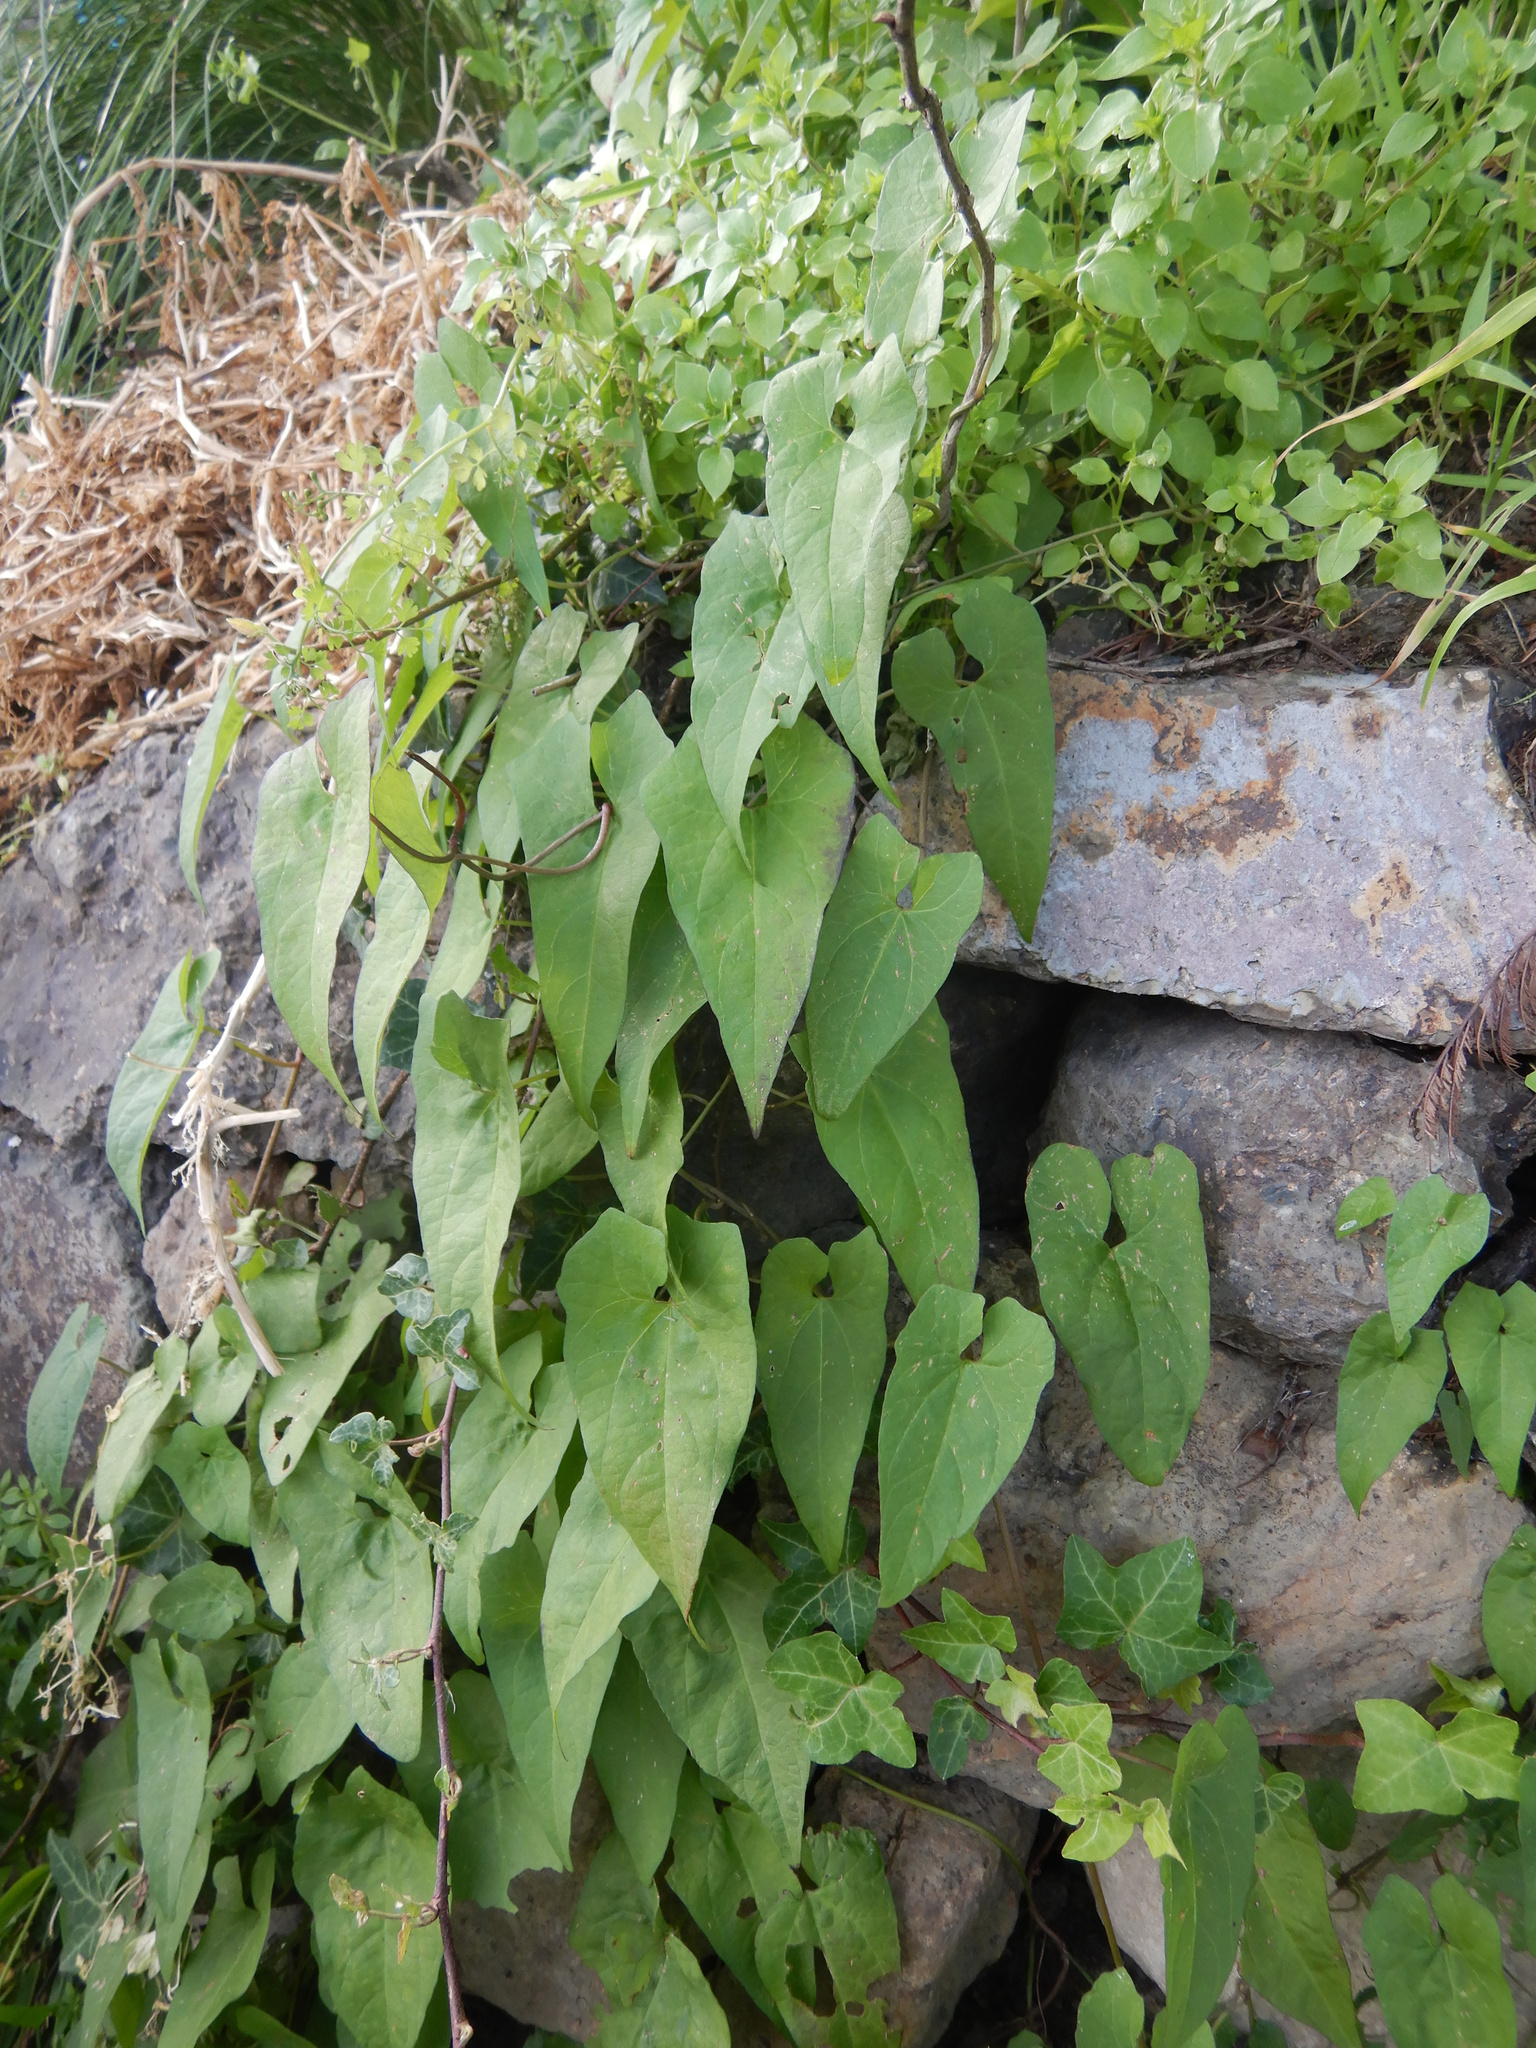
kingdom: Plantae
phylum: Tracheophyta
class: Magnoliopsida
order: Solanales
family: Convolvulaceae
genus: Calystegia
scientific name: Calystegia silvatica
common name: Large bindweed
